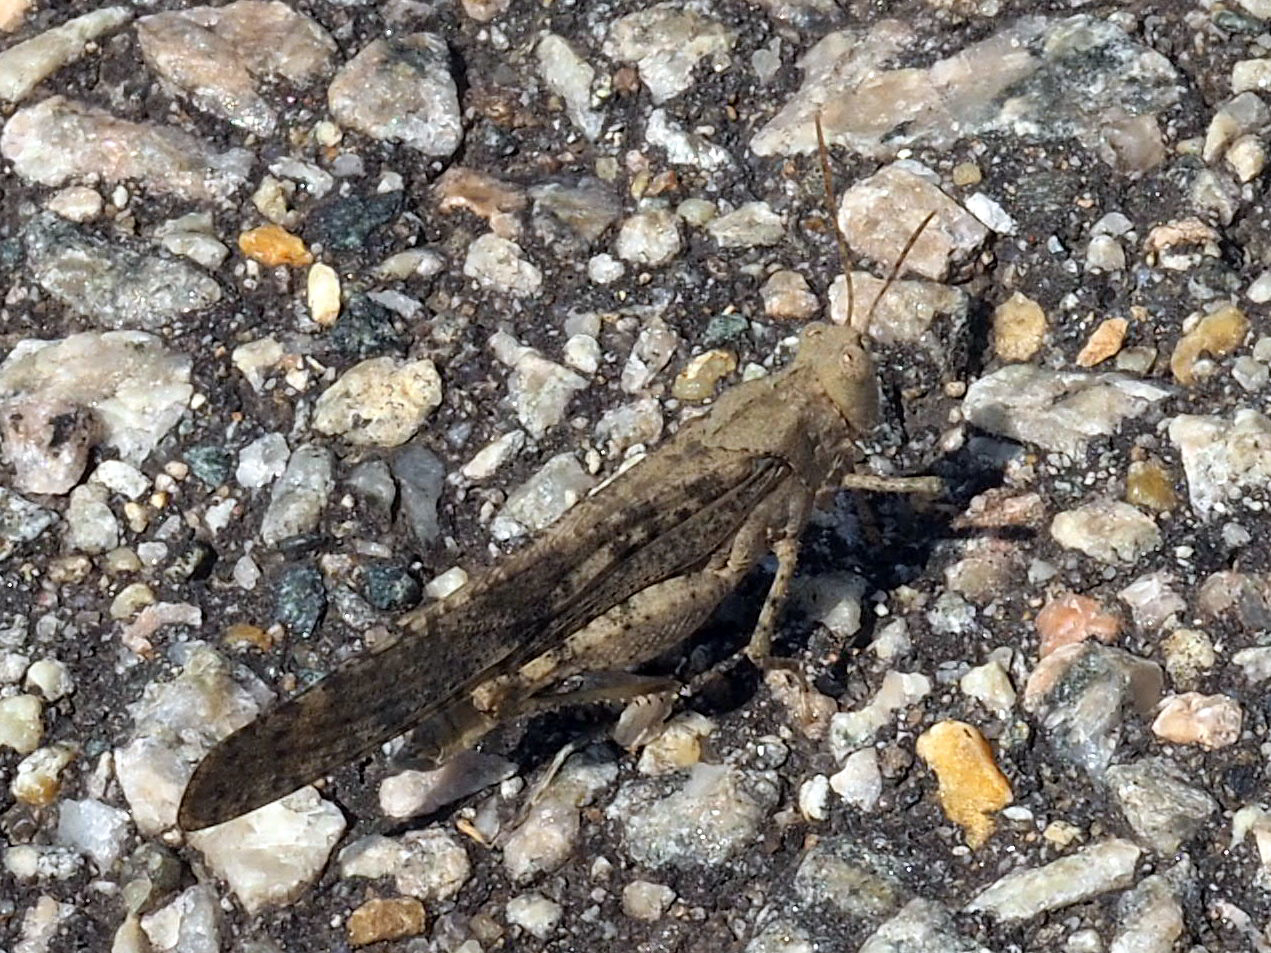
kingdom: Animalia
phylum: Arthropoda
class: Insecta
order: Orthoptera
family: Acrididae
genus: Dissosteira
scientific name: Dissosteira carolina
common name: Carolina grasshopper
